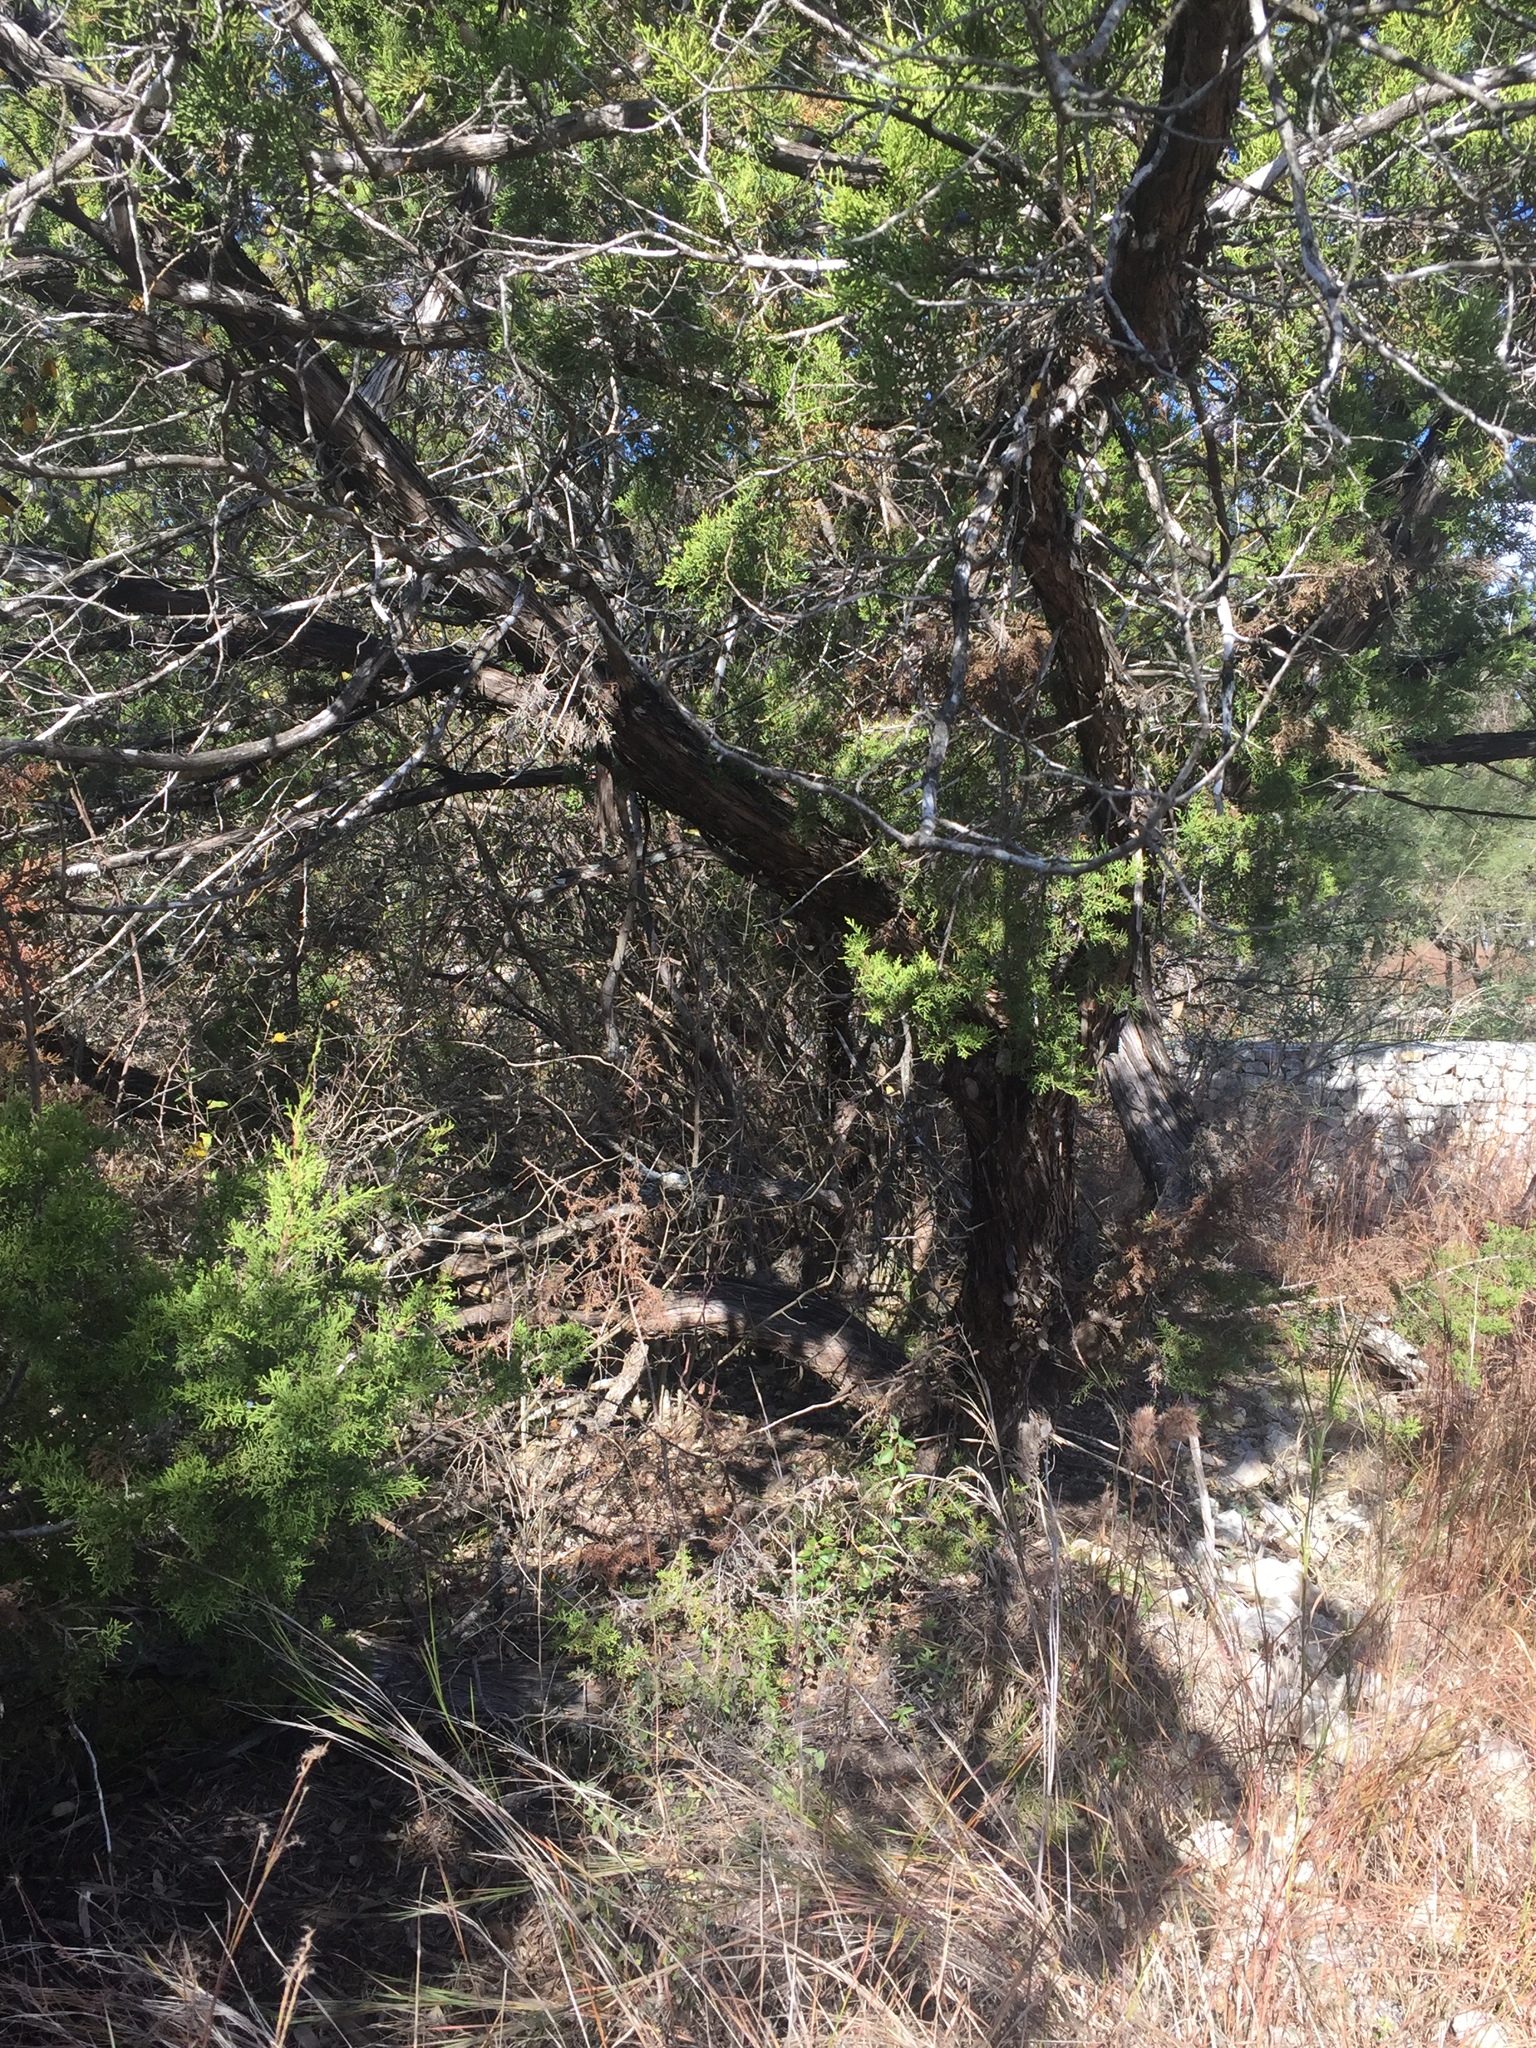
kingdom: Plantae
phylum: Tracheophyta
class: Pinopsida
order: Pinales
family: Cupressaceae
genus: Juniperus
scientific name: Juniperus ashei
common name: Mexican juniper
